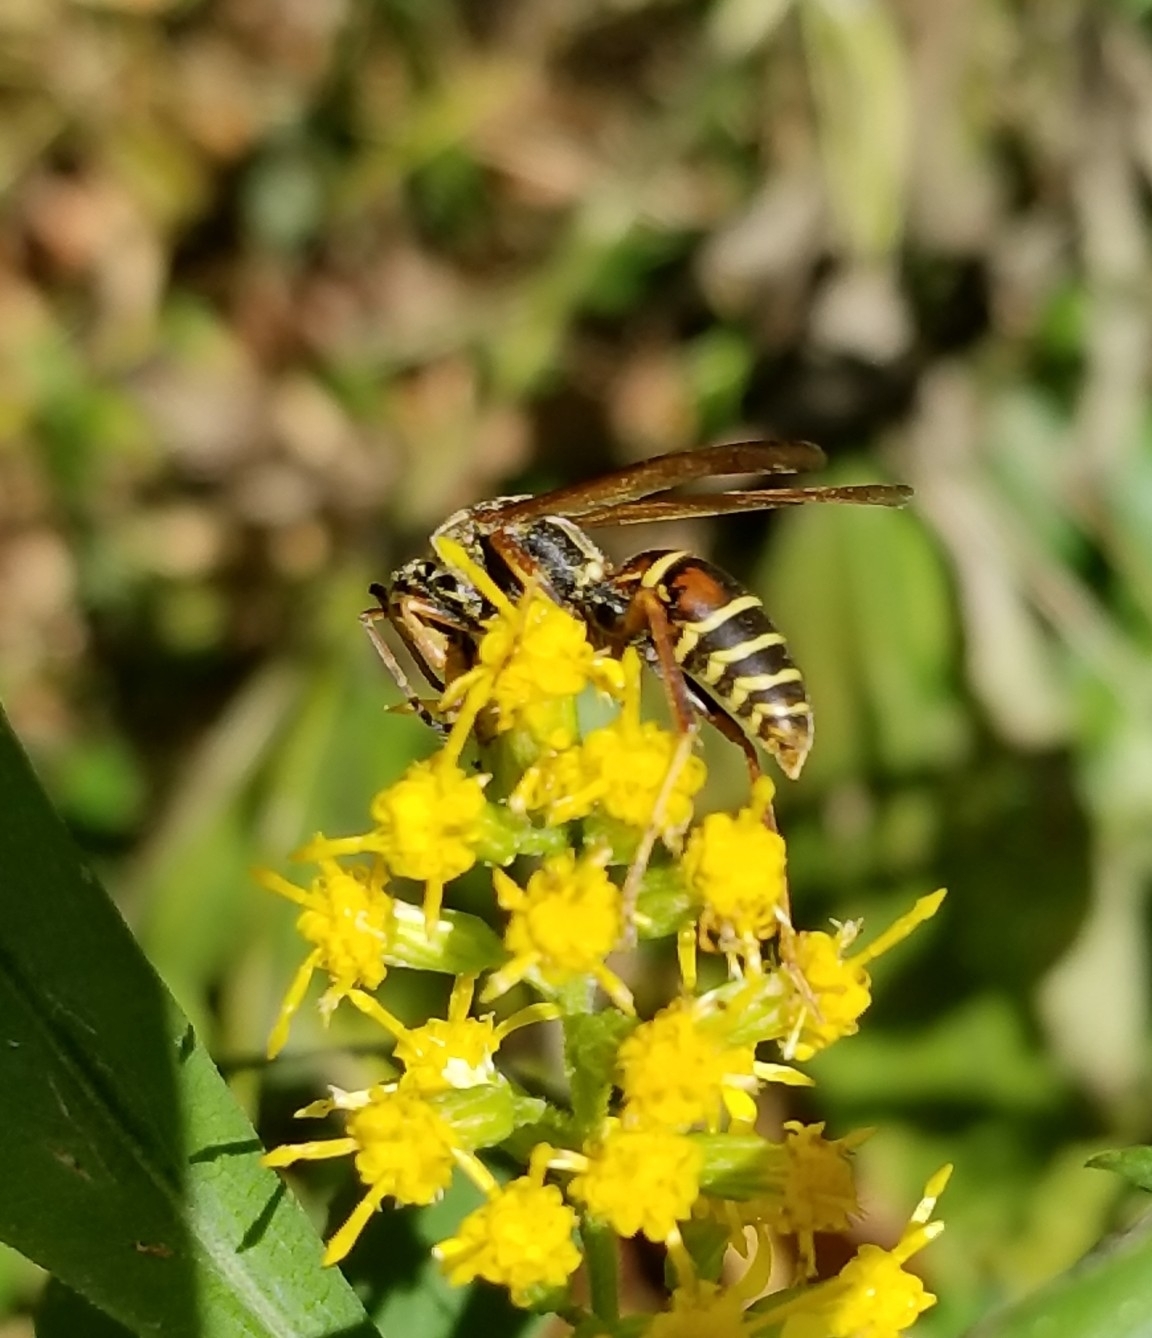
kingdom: Animalia
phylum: Arthropoda
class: Insecta
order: Hymenoptera
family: Eumenidae
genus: Polistes
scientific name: Polistes fuscatus
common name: Dark paper wasp
